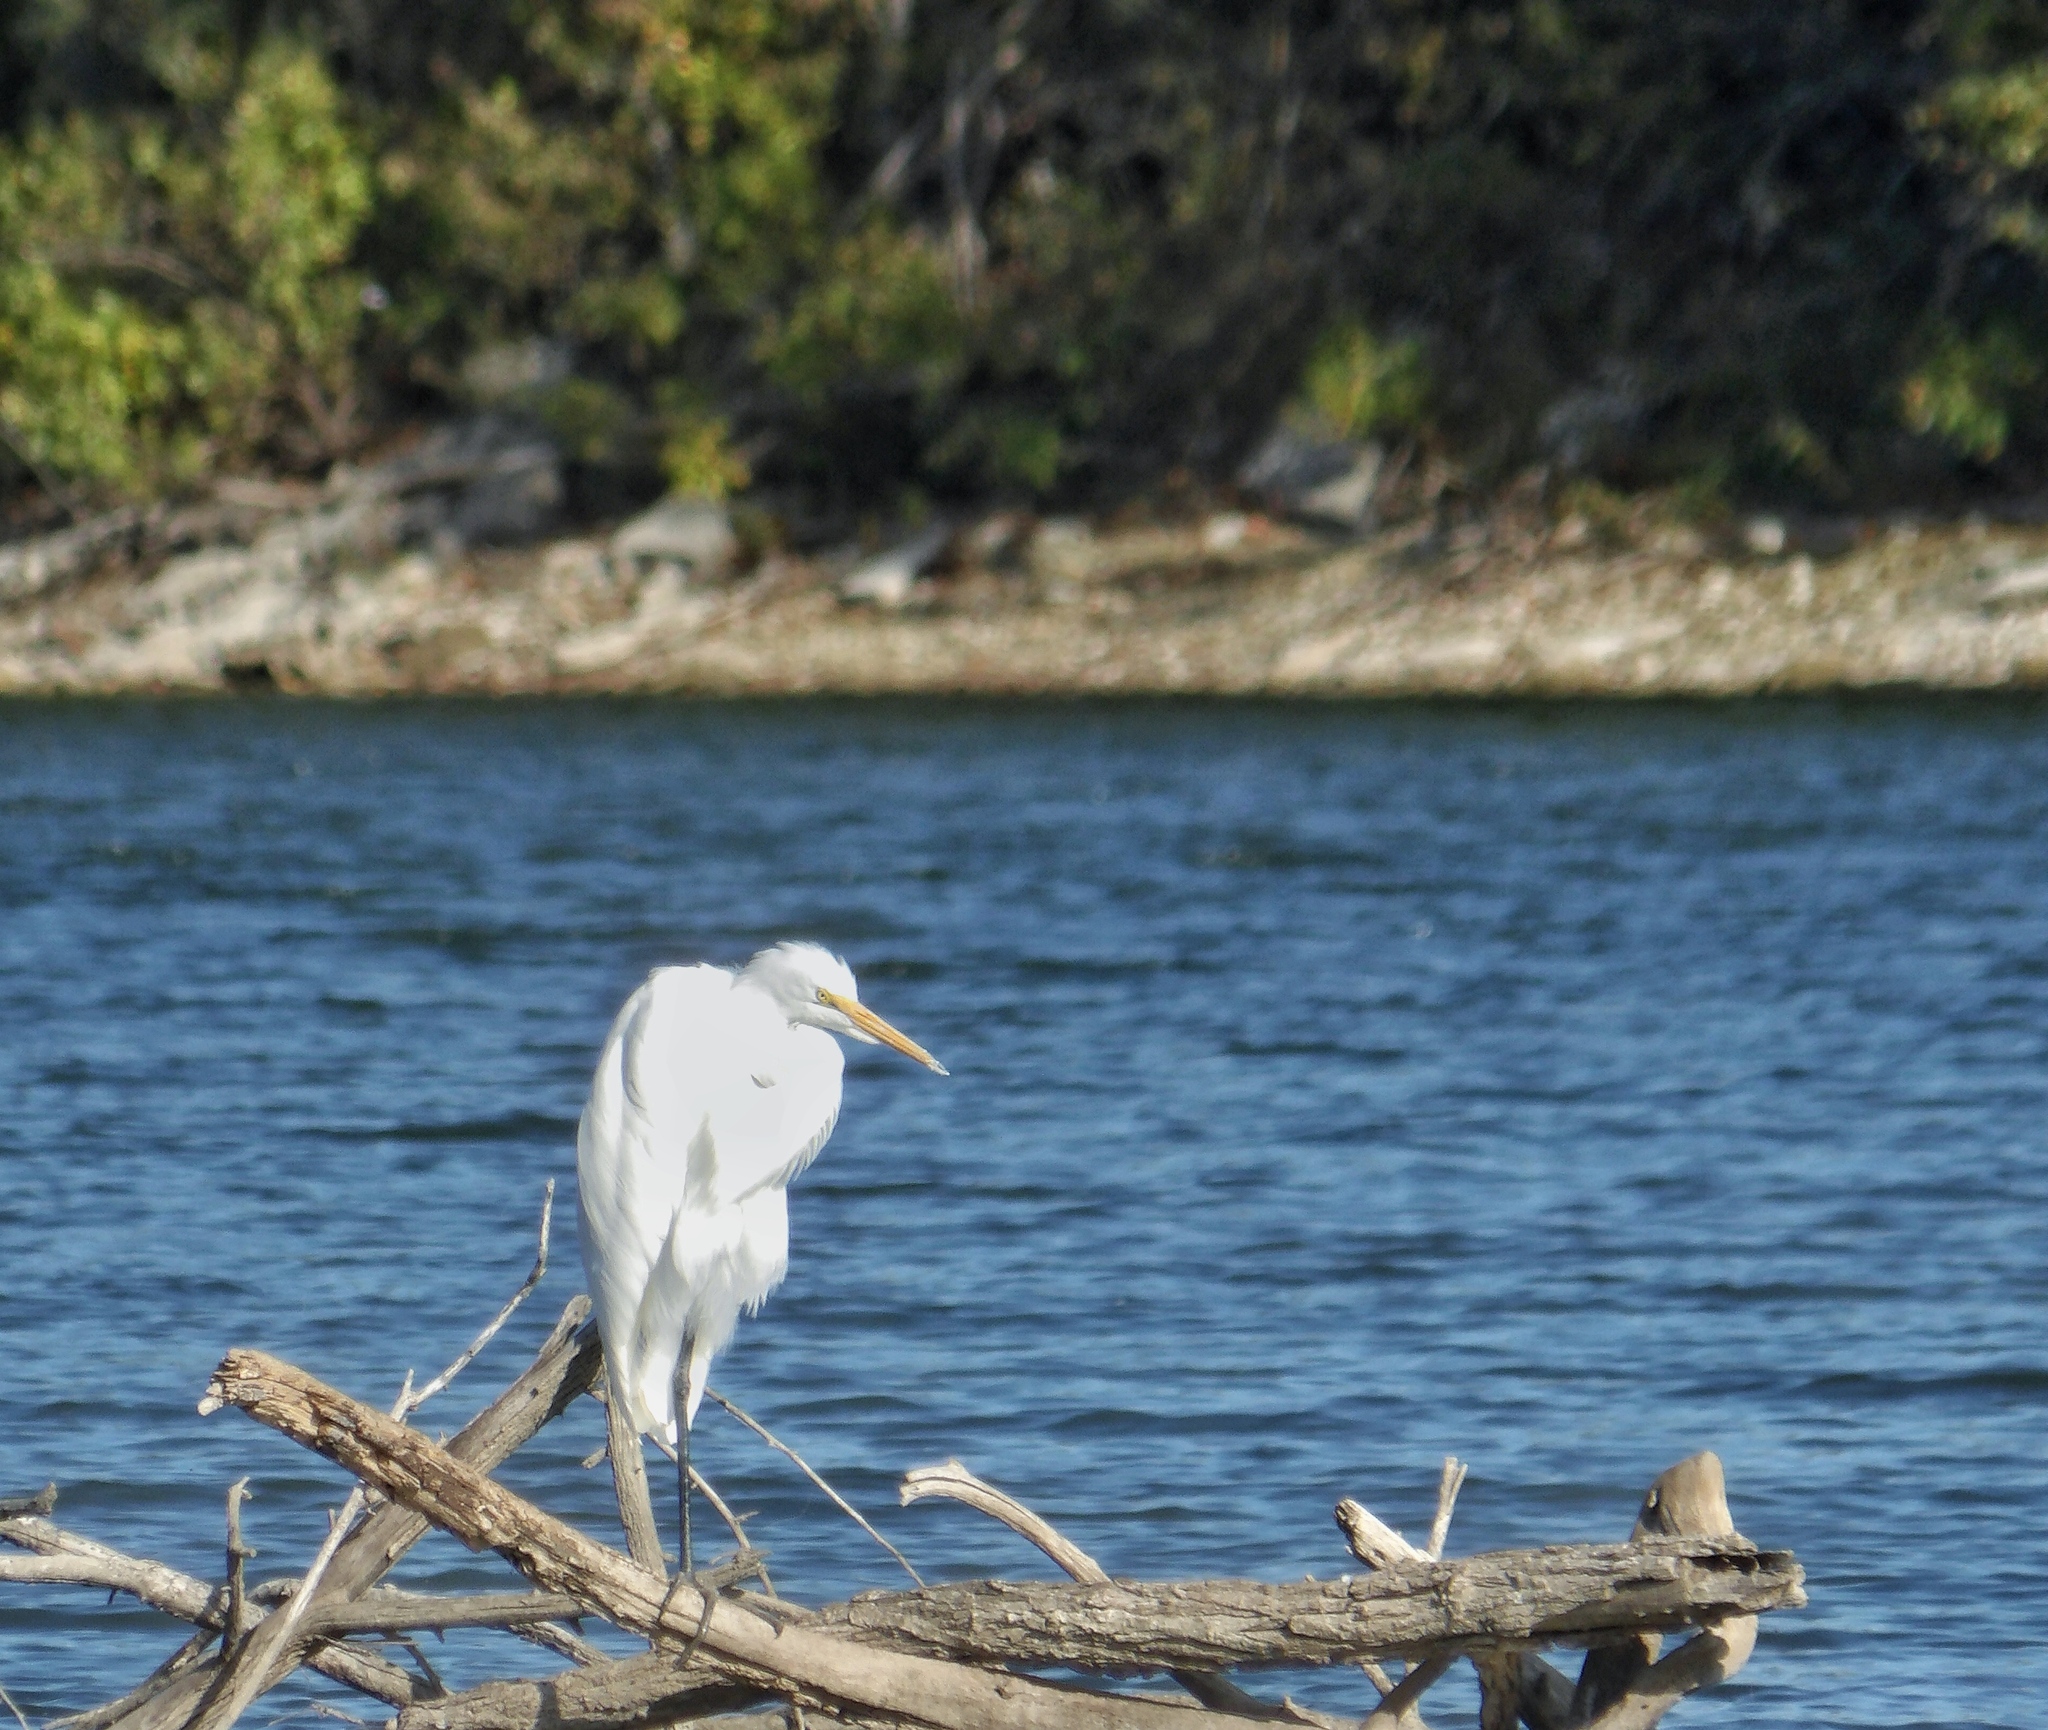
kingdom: Animalia
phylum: Chordata
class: Aves
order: Pelecaniformes
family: Ardeidae
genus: Ardea
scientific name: Ardea alba
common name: Great egret
